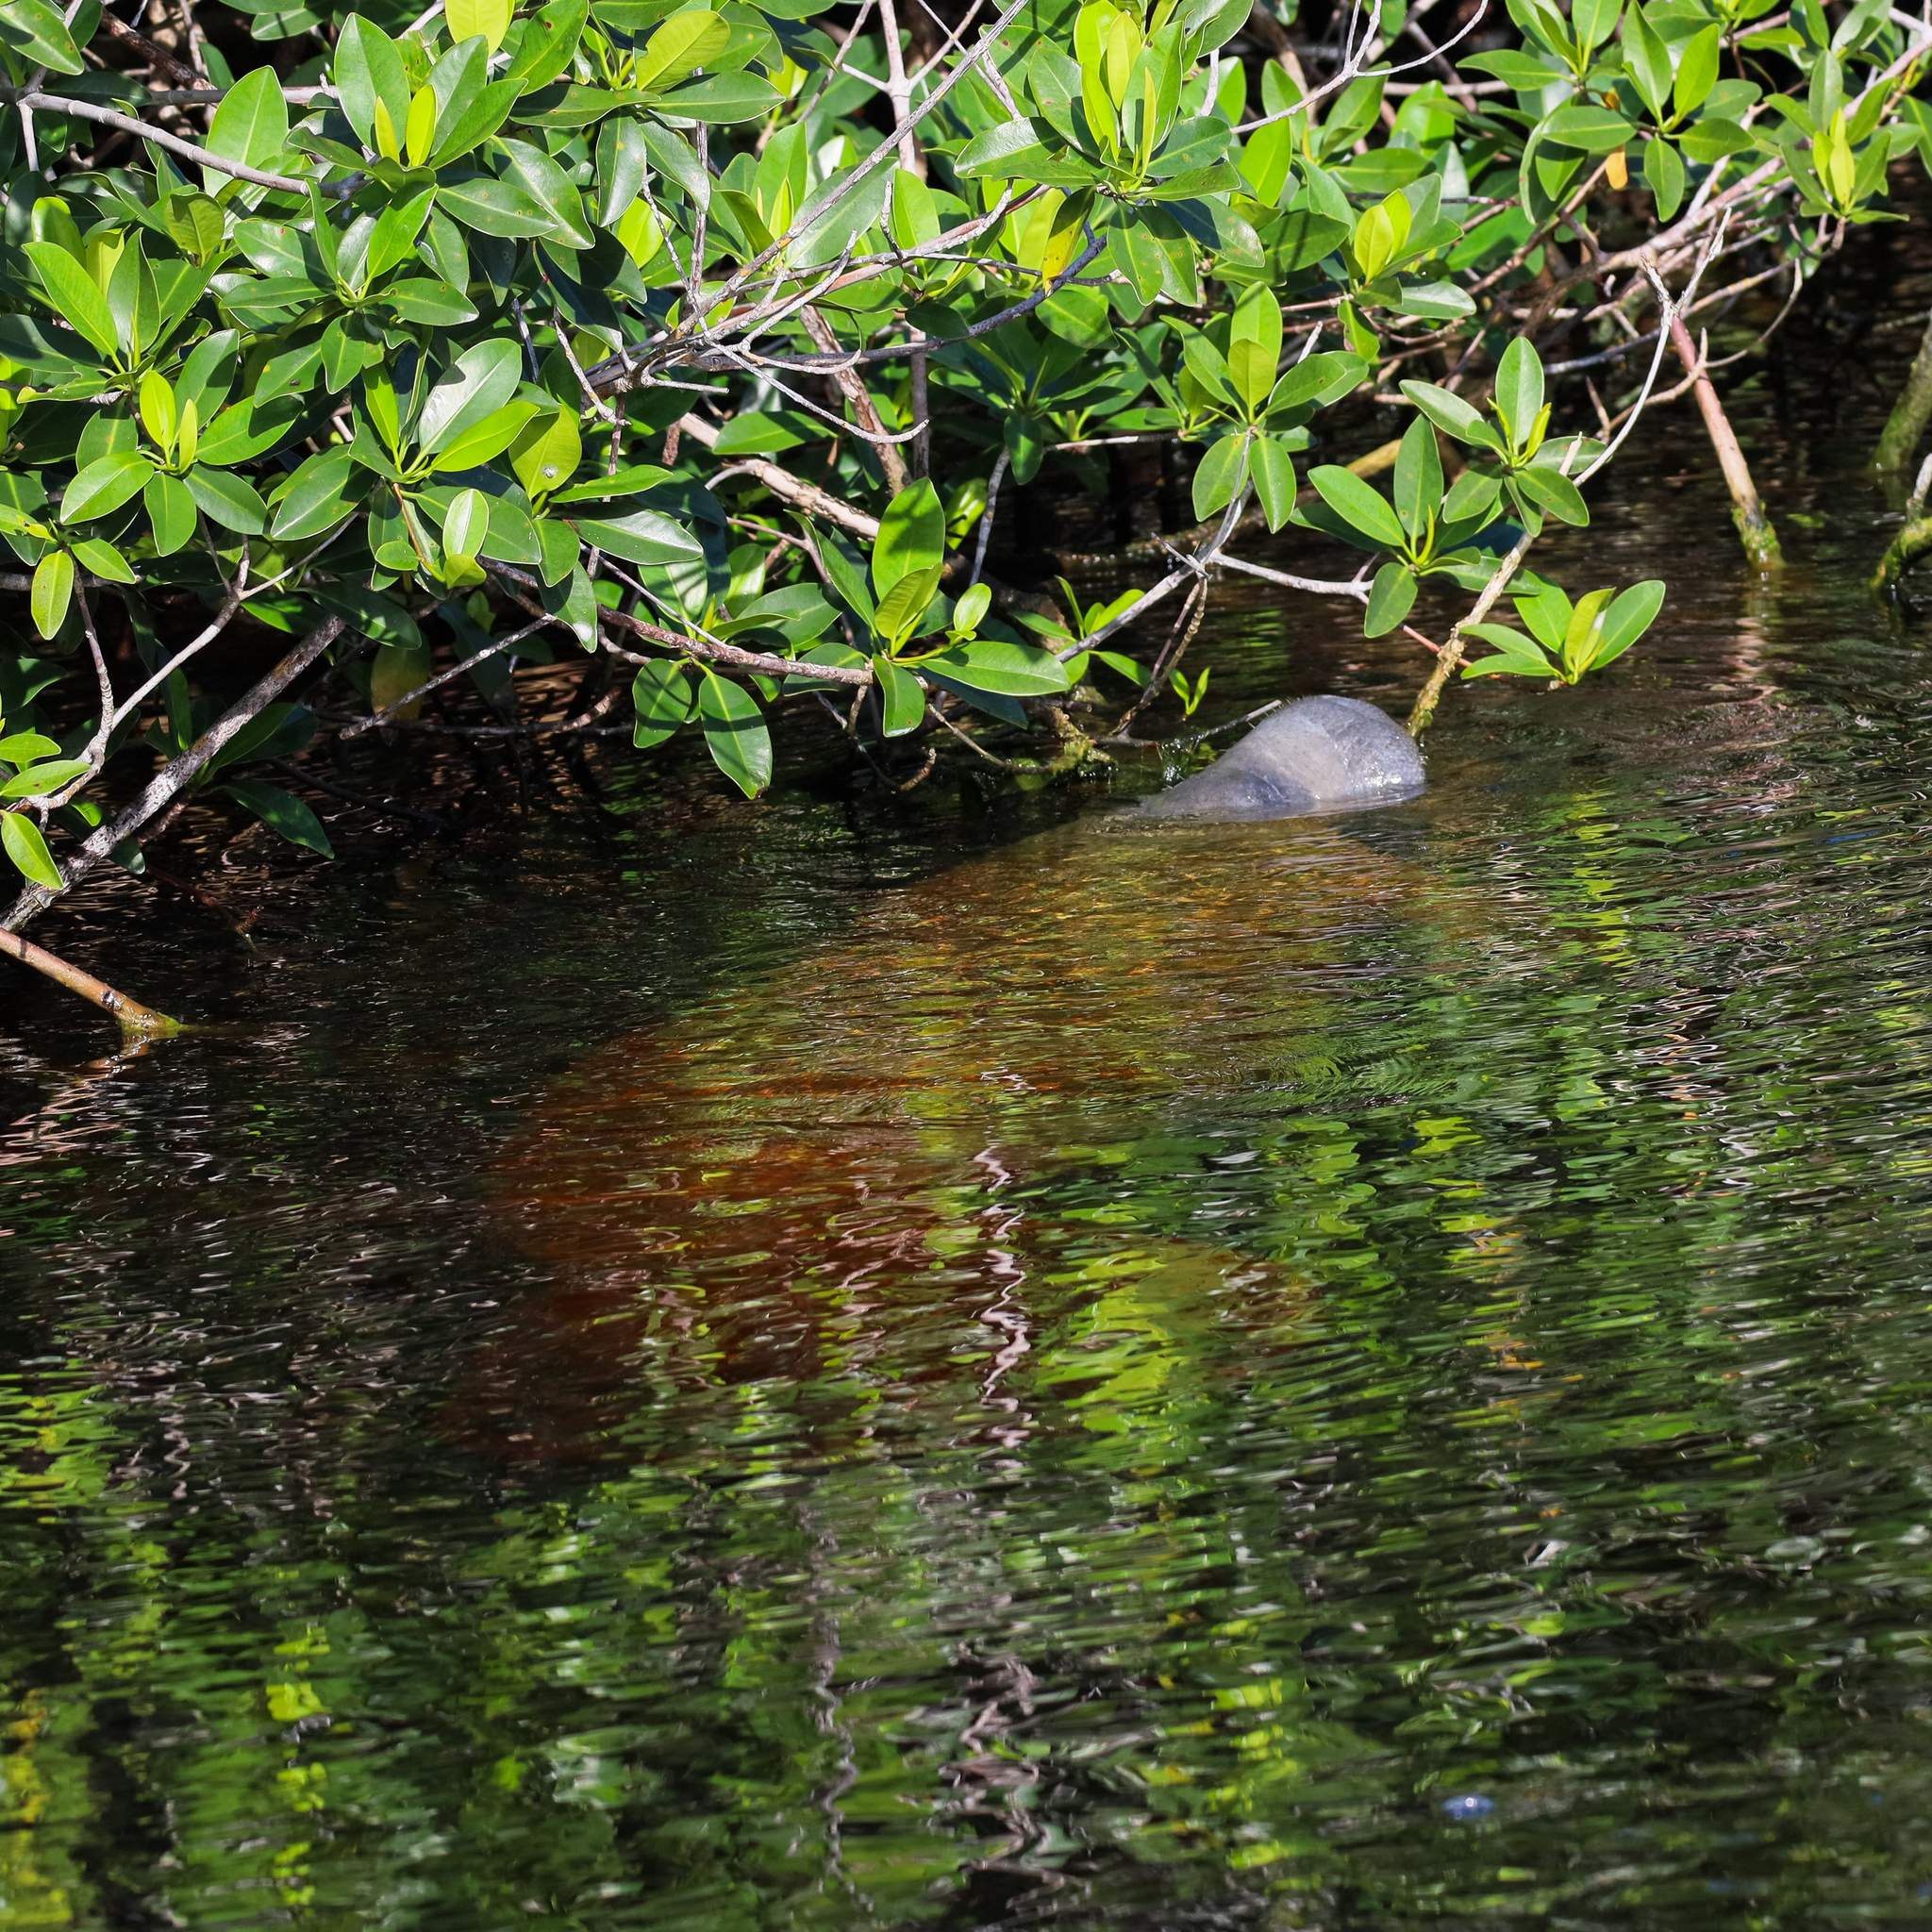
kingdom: Animalia
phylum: Chordata
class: Mammalia
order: Sirenia
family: Trichechidae
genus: Trichechus
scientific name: Trichechus manatus
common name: West indian manatee
